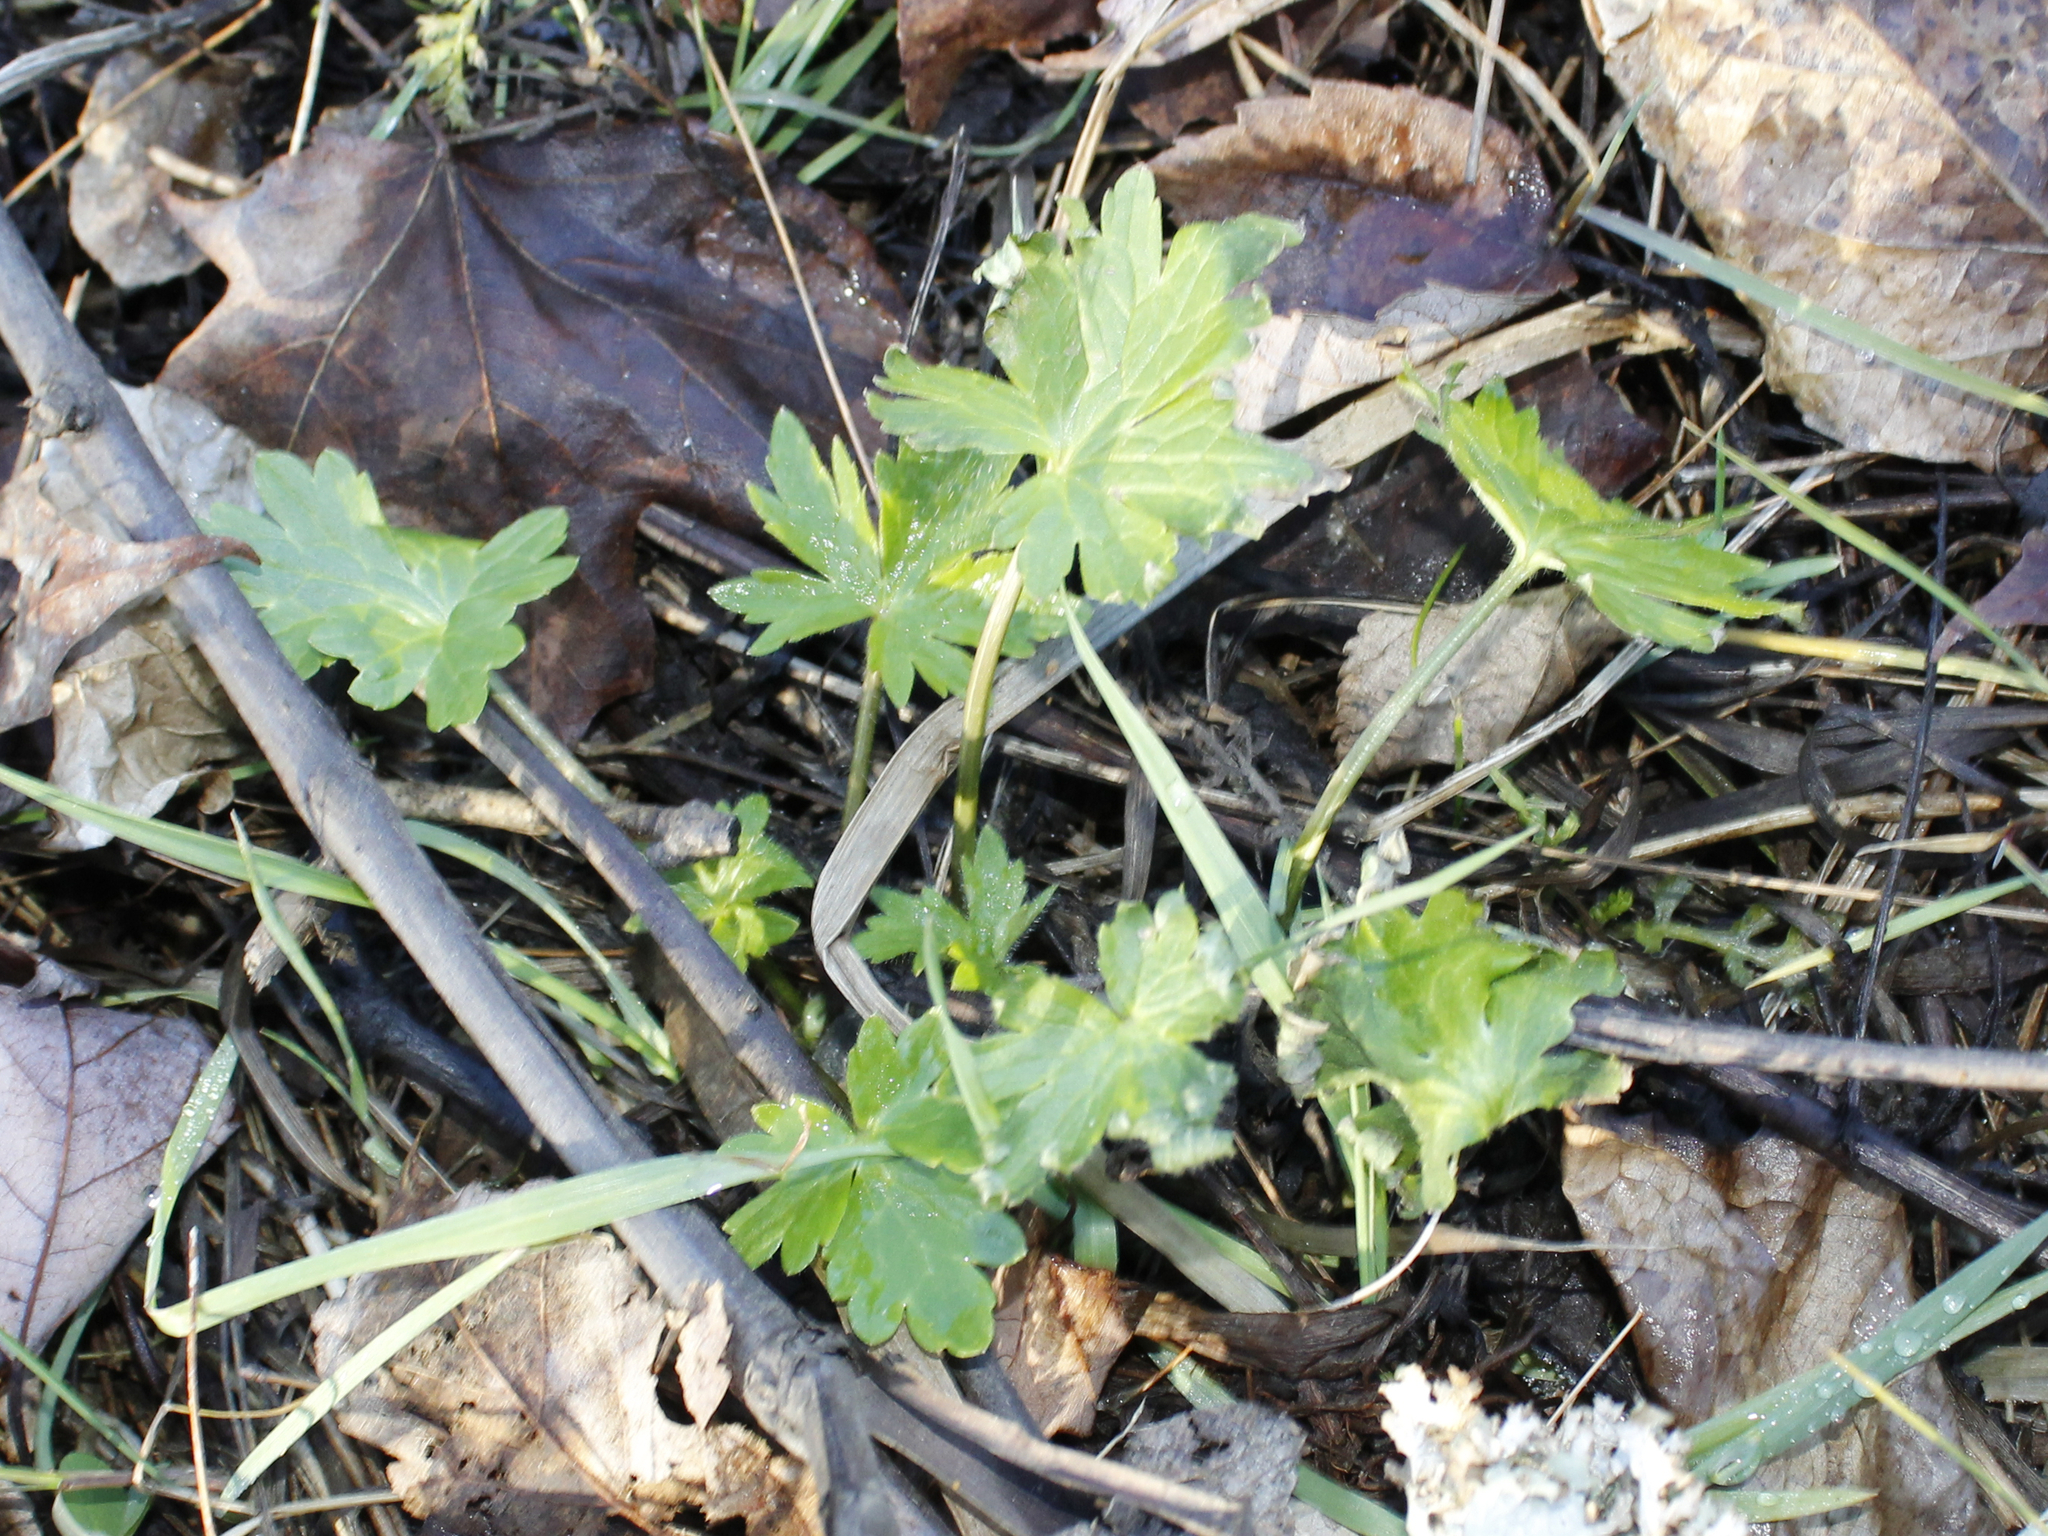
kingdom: Plantae
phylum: Tracheophyta
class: Magnoliopsida
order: Ranunculales
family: Ranunculaceae
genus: Ranunculus
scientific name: Ranunculus repens
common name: Creeping buttercup
